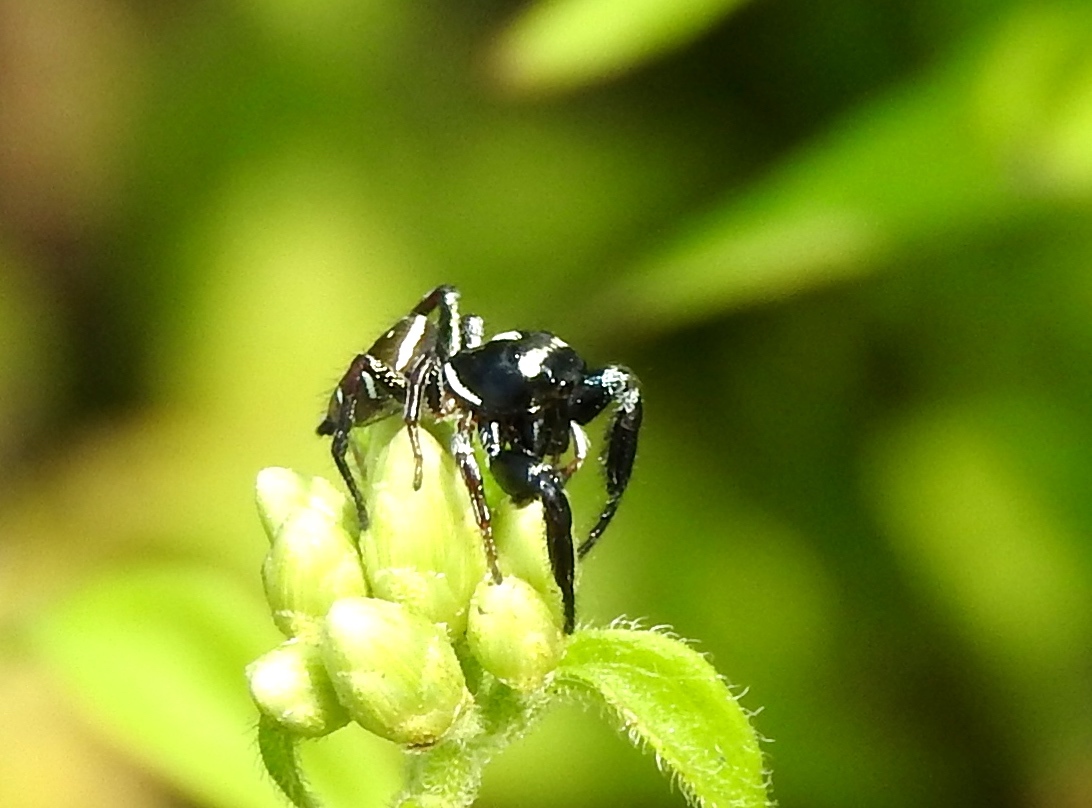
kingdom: Animalia
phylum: Arthropoda
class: Arachnida
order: Araneae
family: Salticidae
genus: Sassacus
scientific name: Sassacus
